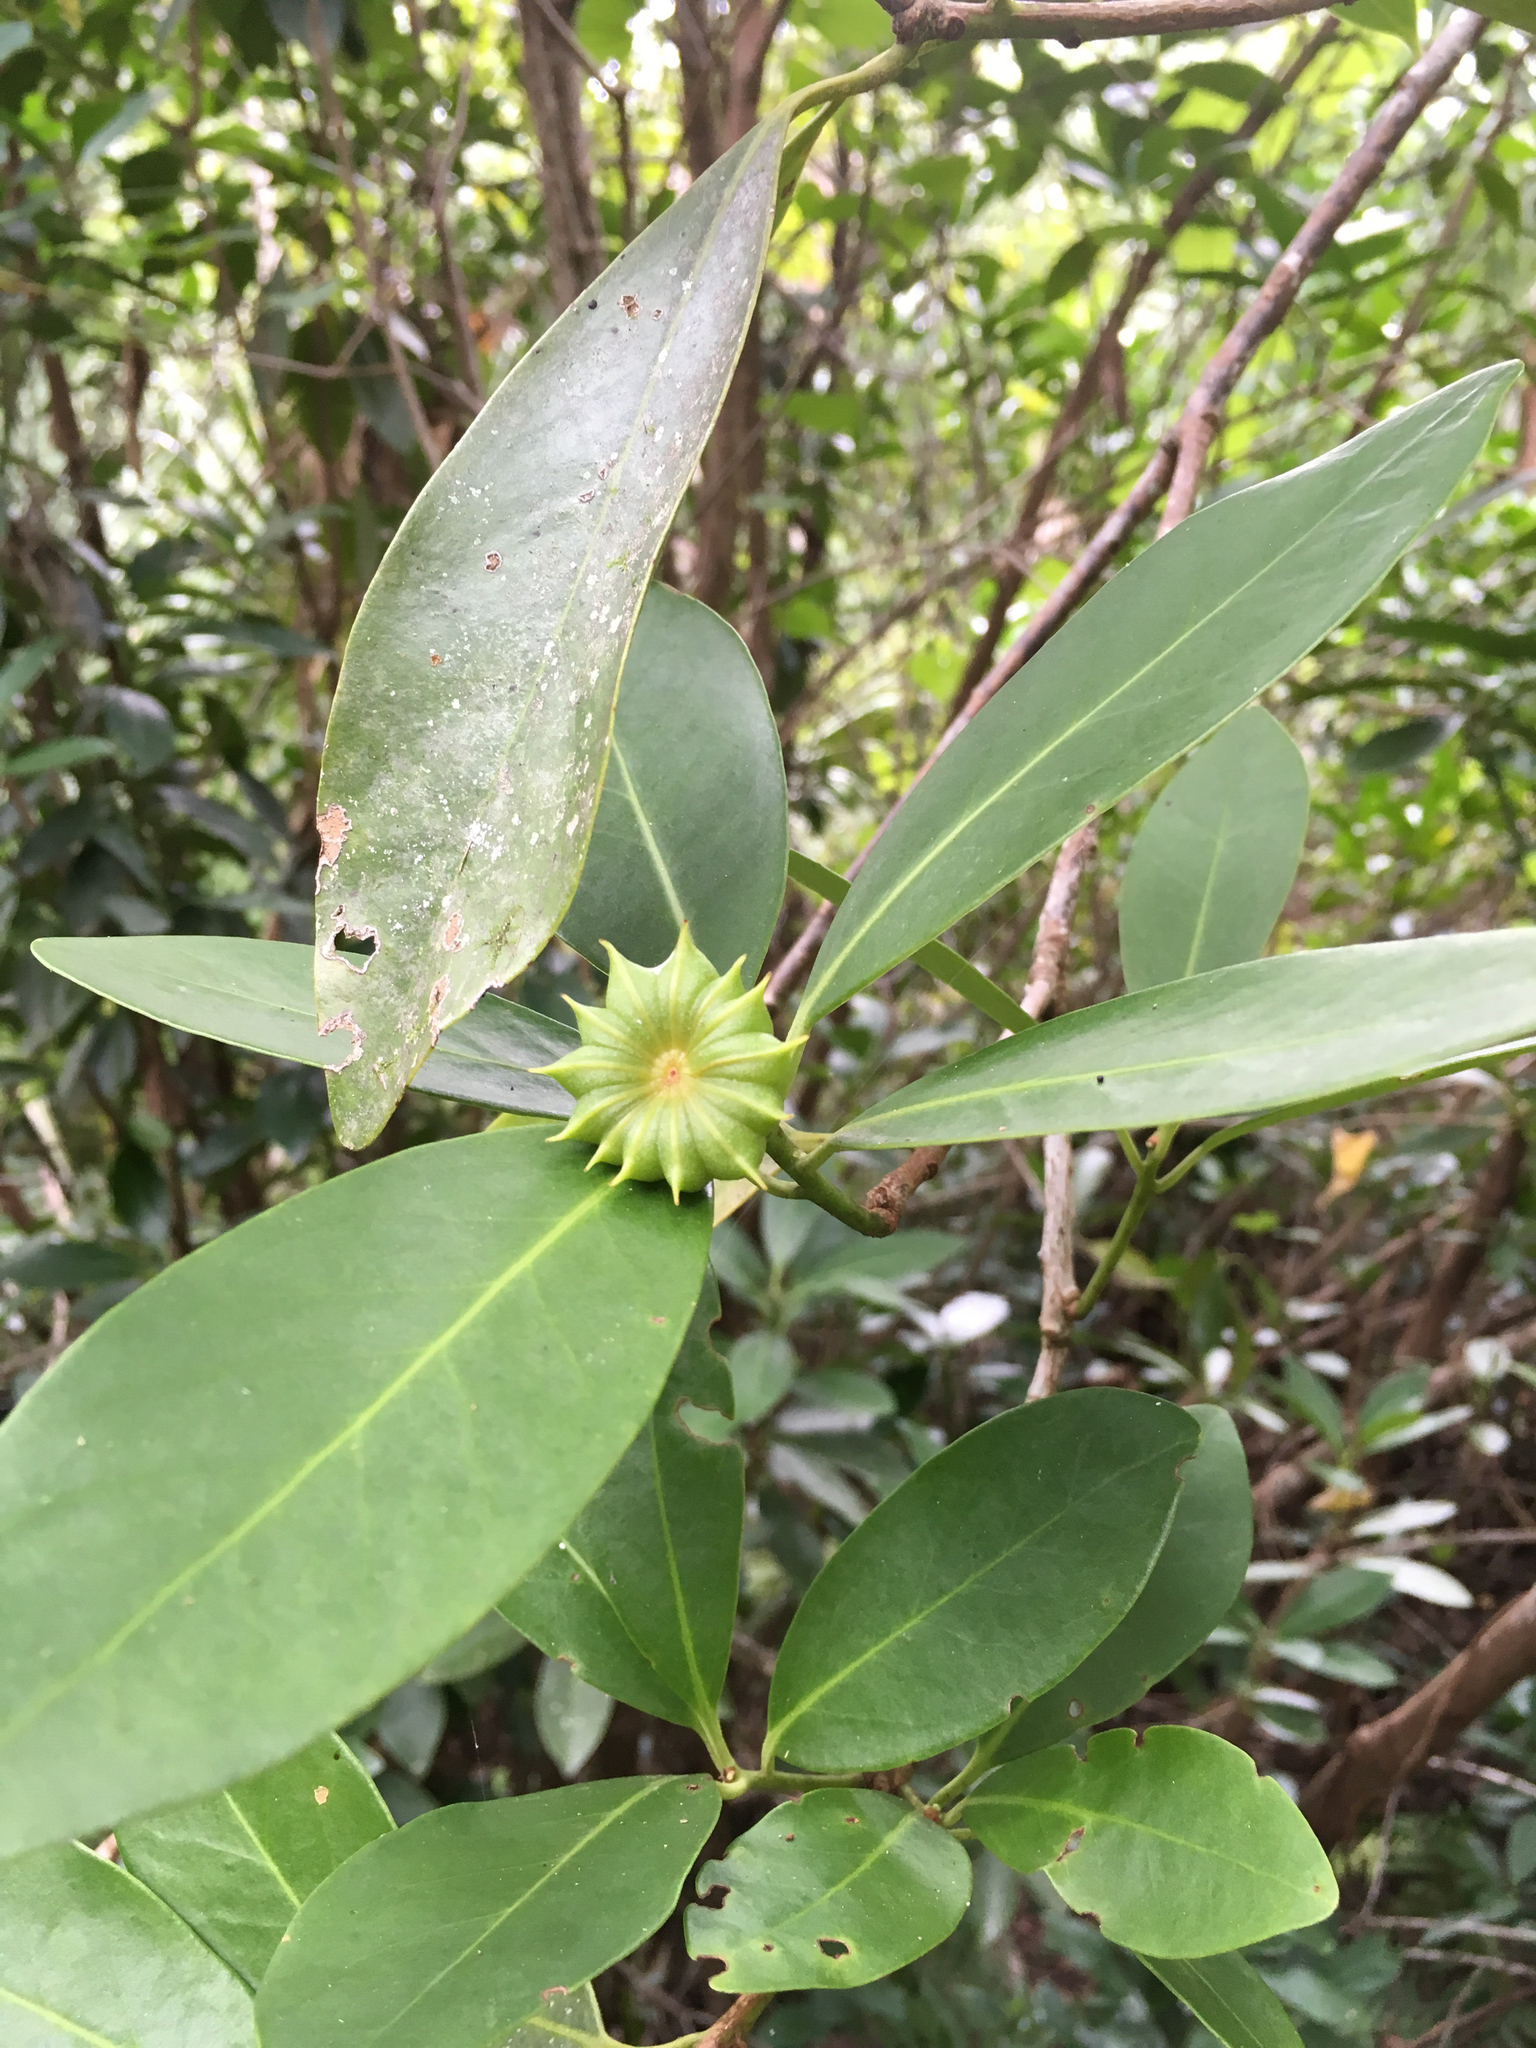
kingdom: Plantae
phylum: Tracheophyta
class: Magnoliopsida
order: Austrobaileyales
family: Schisandraceae
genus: Illicium
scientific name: Illicium parviflorum
